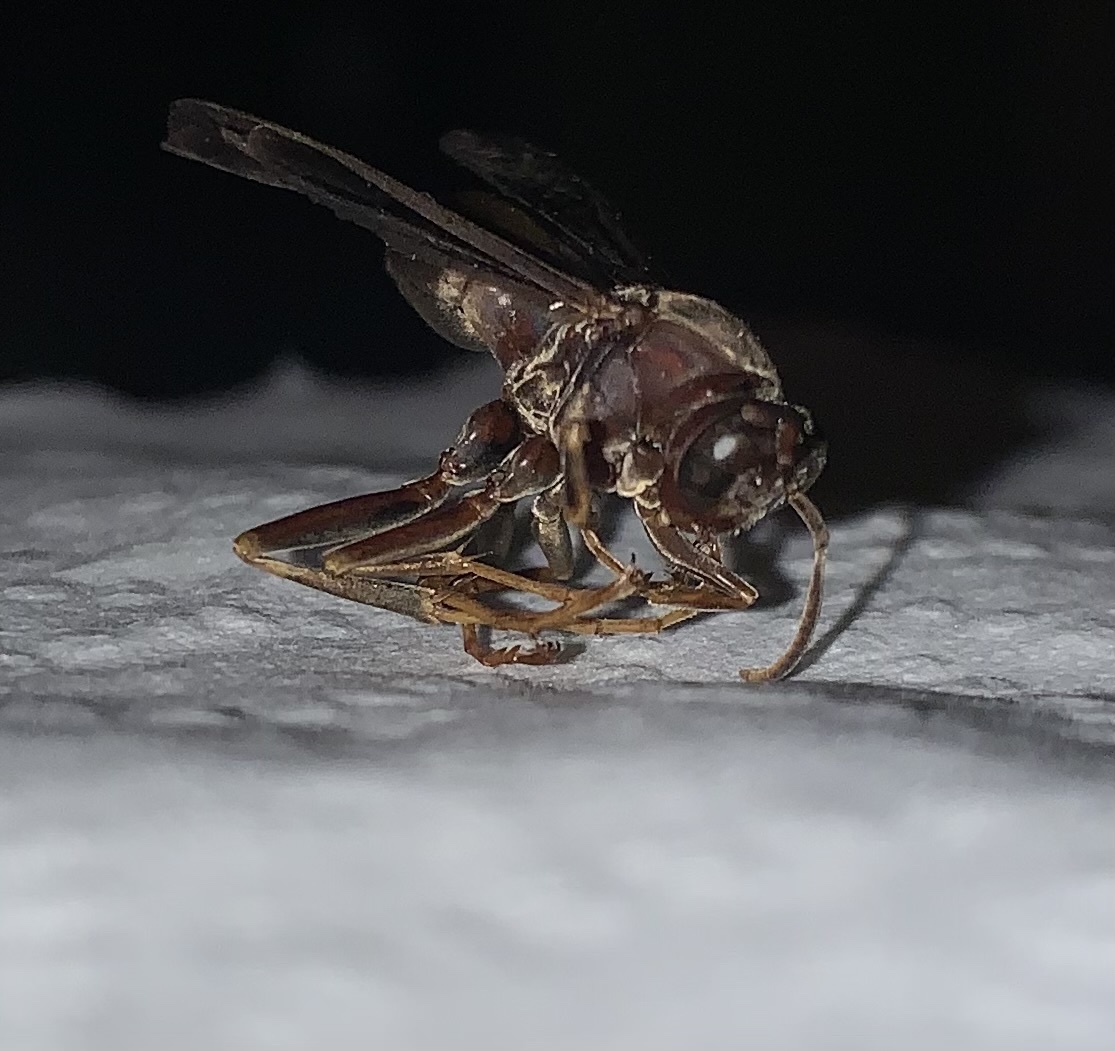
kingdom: Animalia
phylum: Arthropoda
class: Insecta
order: Hymenoptera
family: Eumenidae
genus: Polistes
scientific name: Polistes metricus
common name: Metric paper wasp
